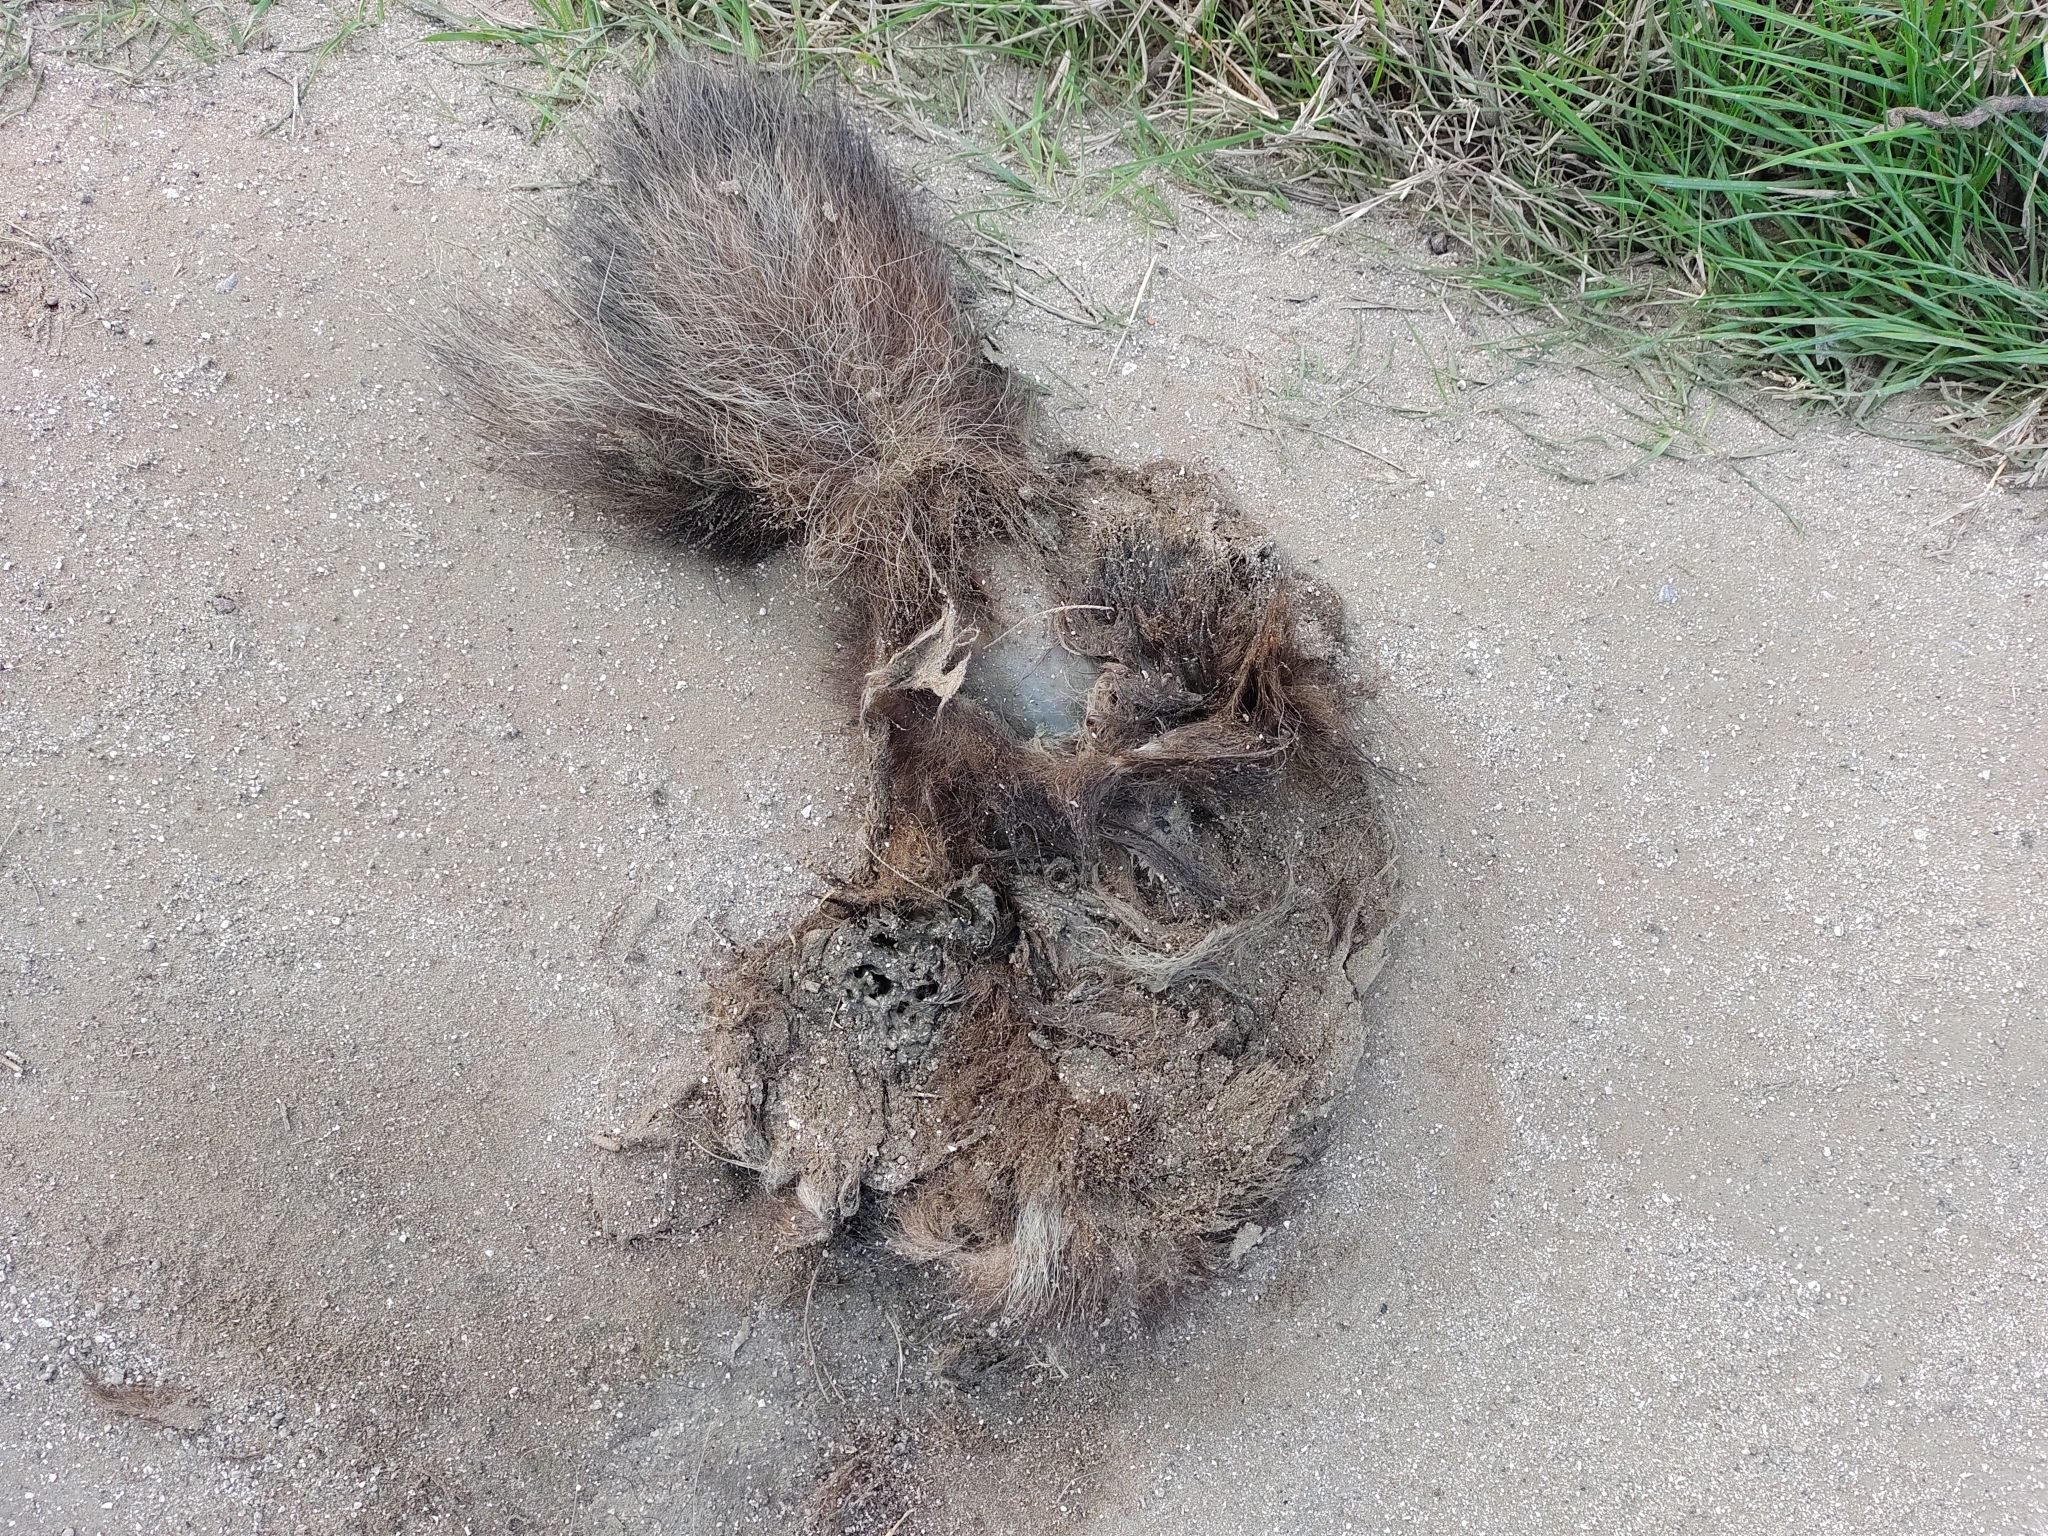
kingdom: Animalia
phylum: Chordata
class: Mammalia
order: Carnivora
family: Mephitidae
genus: Conepatus
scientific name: Conepatus chinga
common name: Molina's hog-nosed skunk
